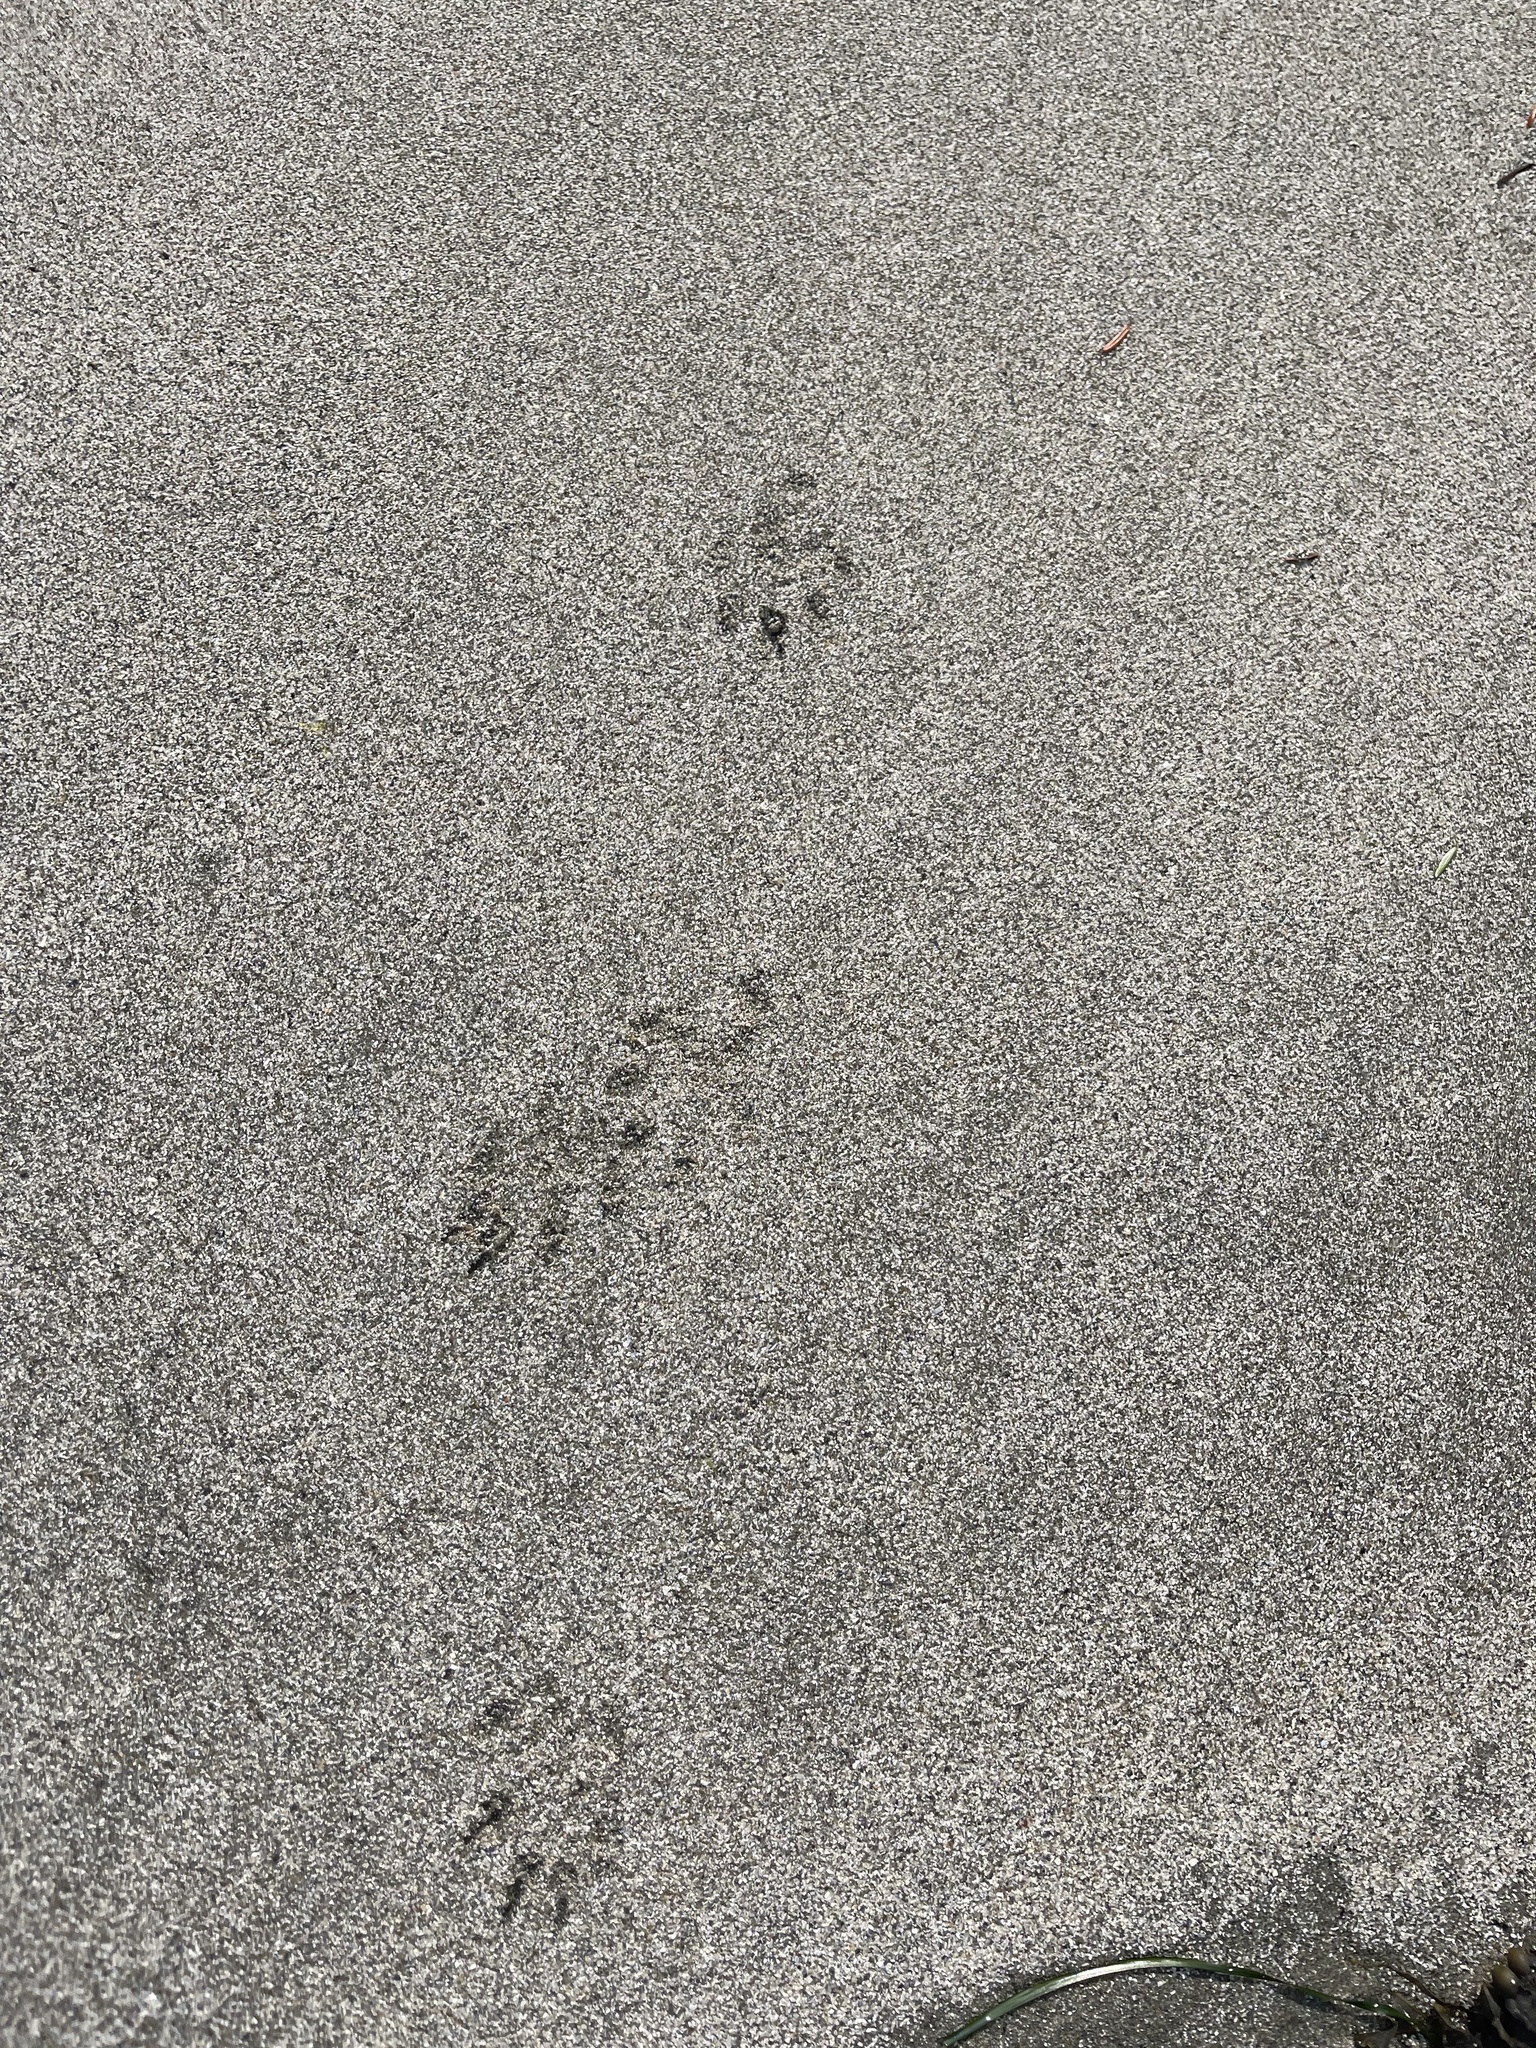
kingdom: Animalia
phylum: Chordata
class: Mammalia
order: Carnivora
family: Mustelidae
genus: Mustela
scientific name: Mustela
